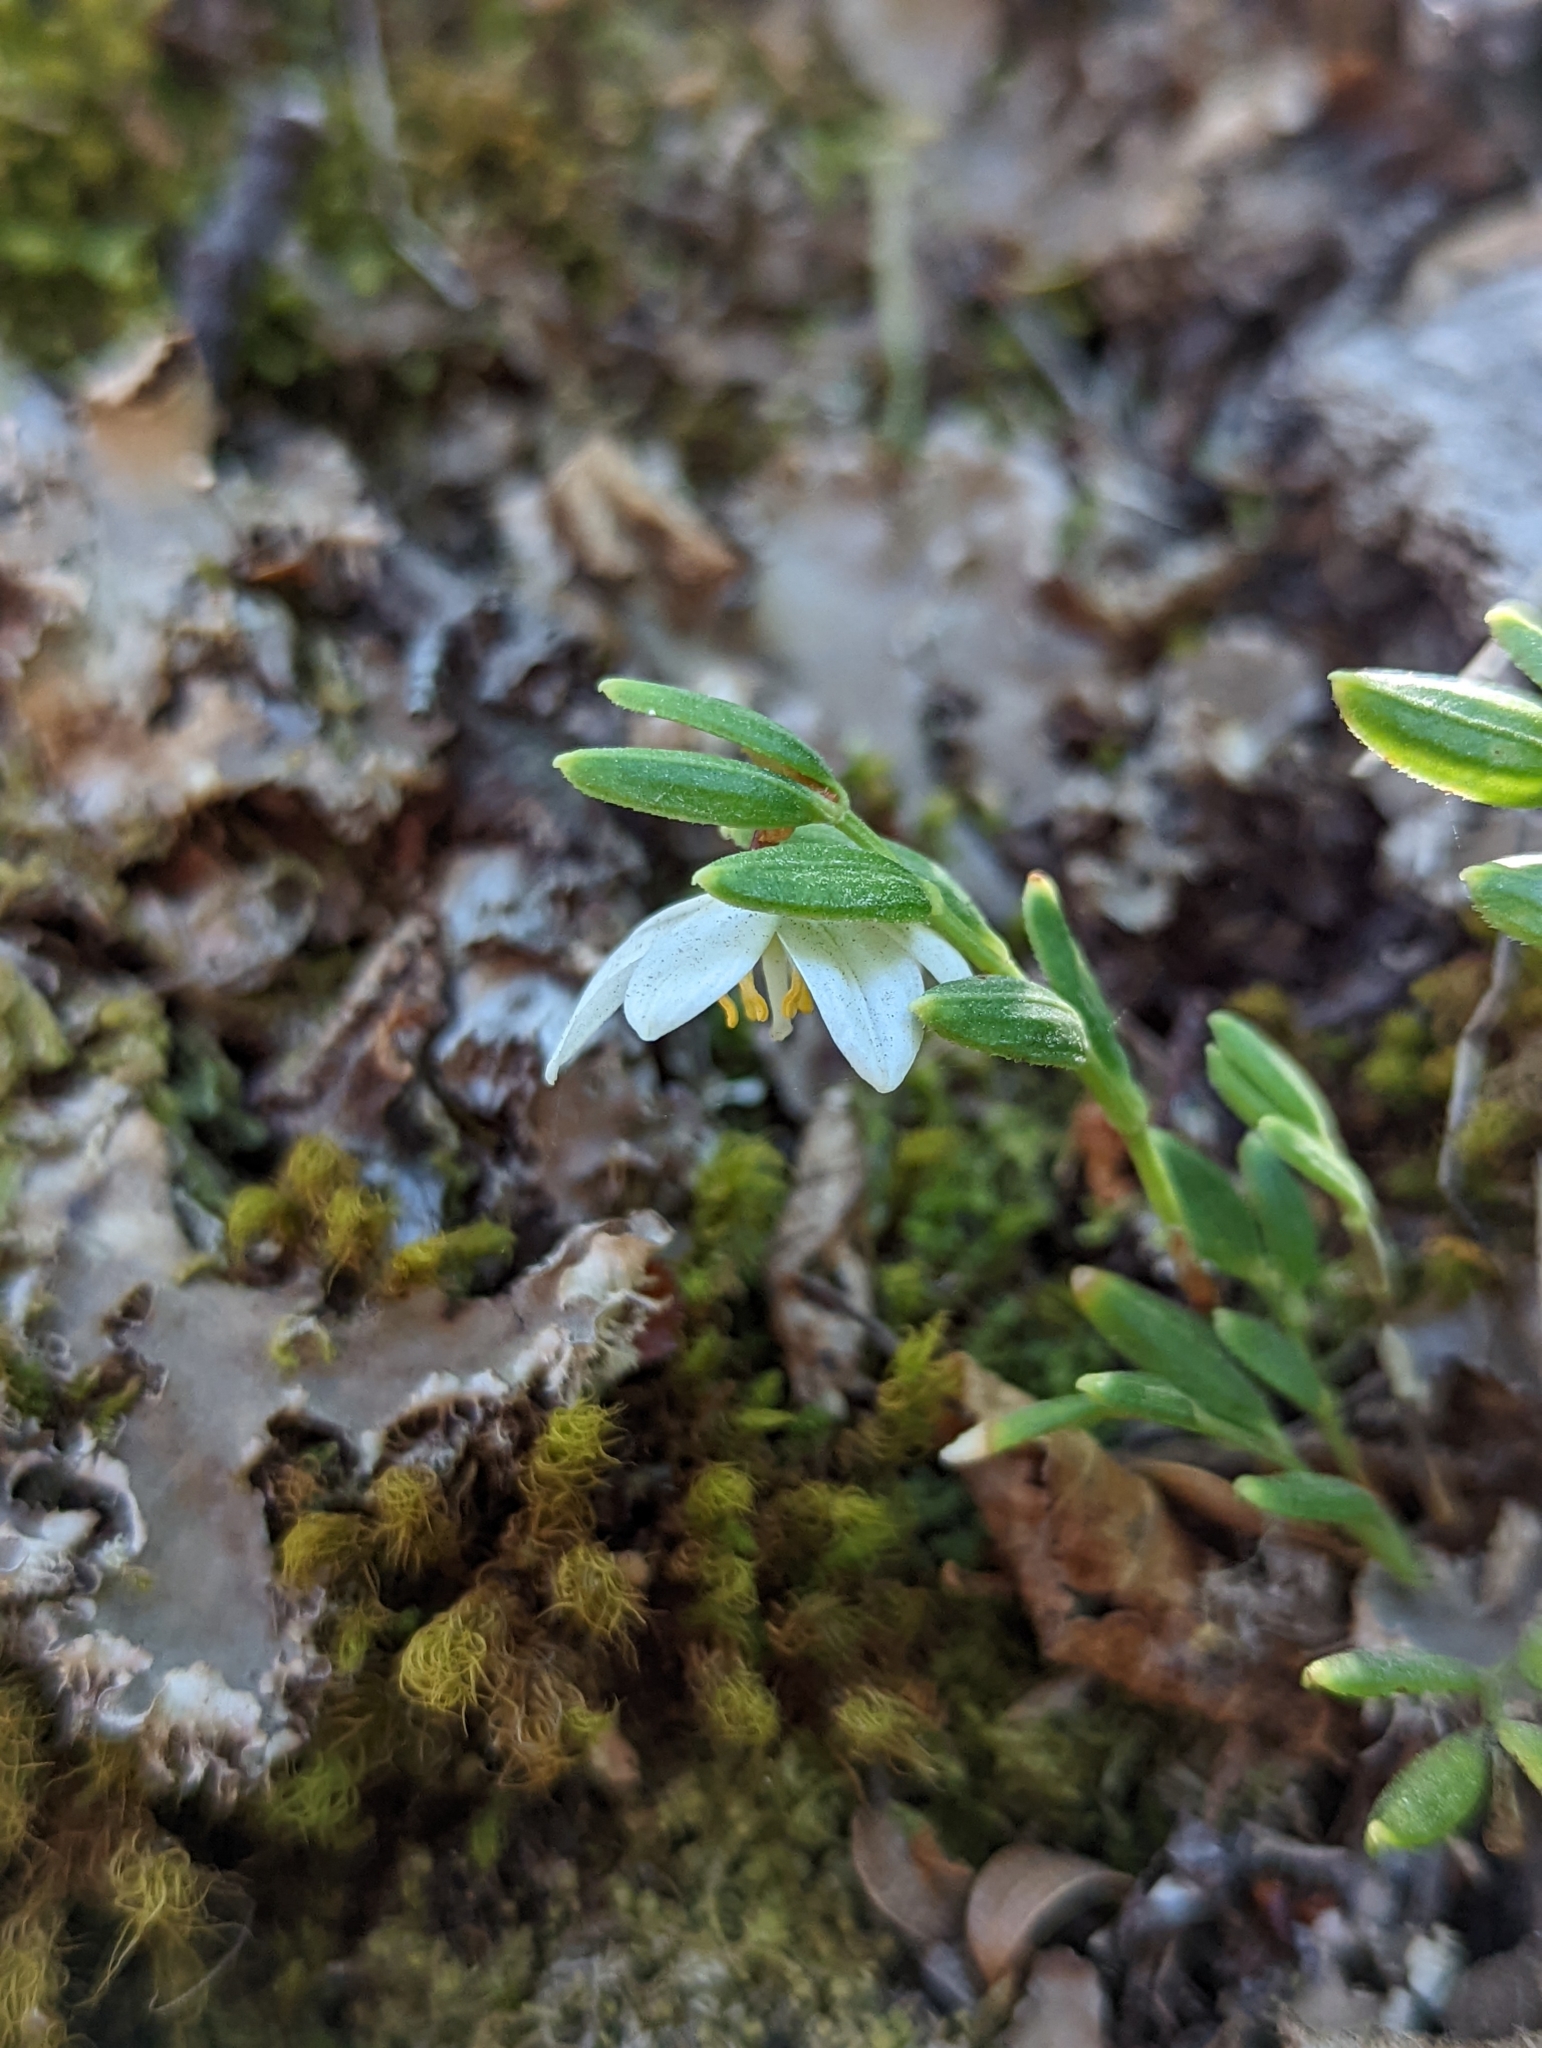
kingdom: Plantae
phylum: Tracheophyta
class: Liliopsida
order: Liliales
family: Alstroemeriaceae
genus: Luzuriaga
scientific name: Luzuriaga marginata
